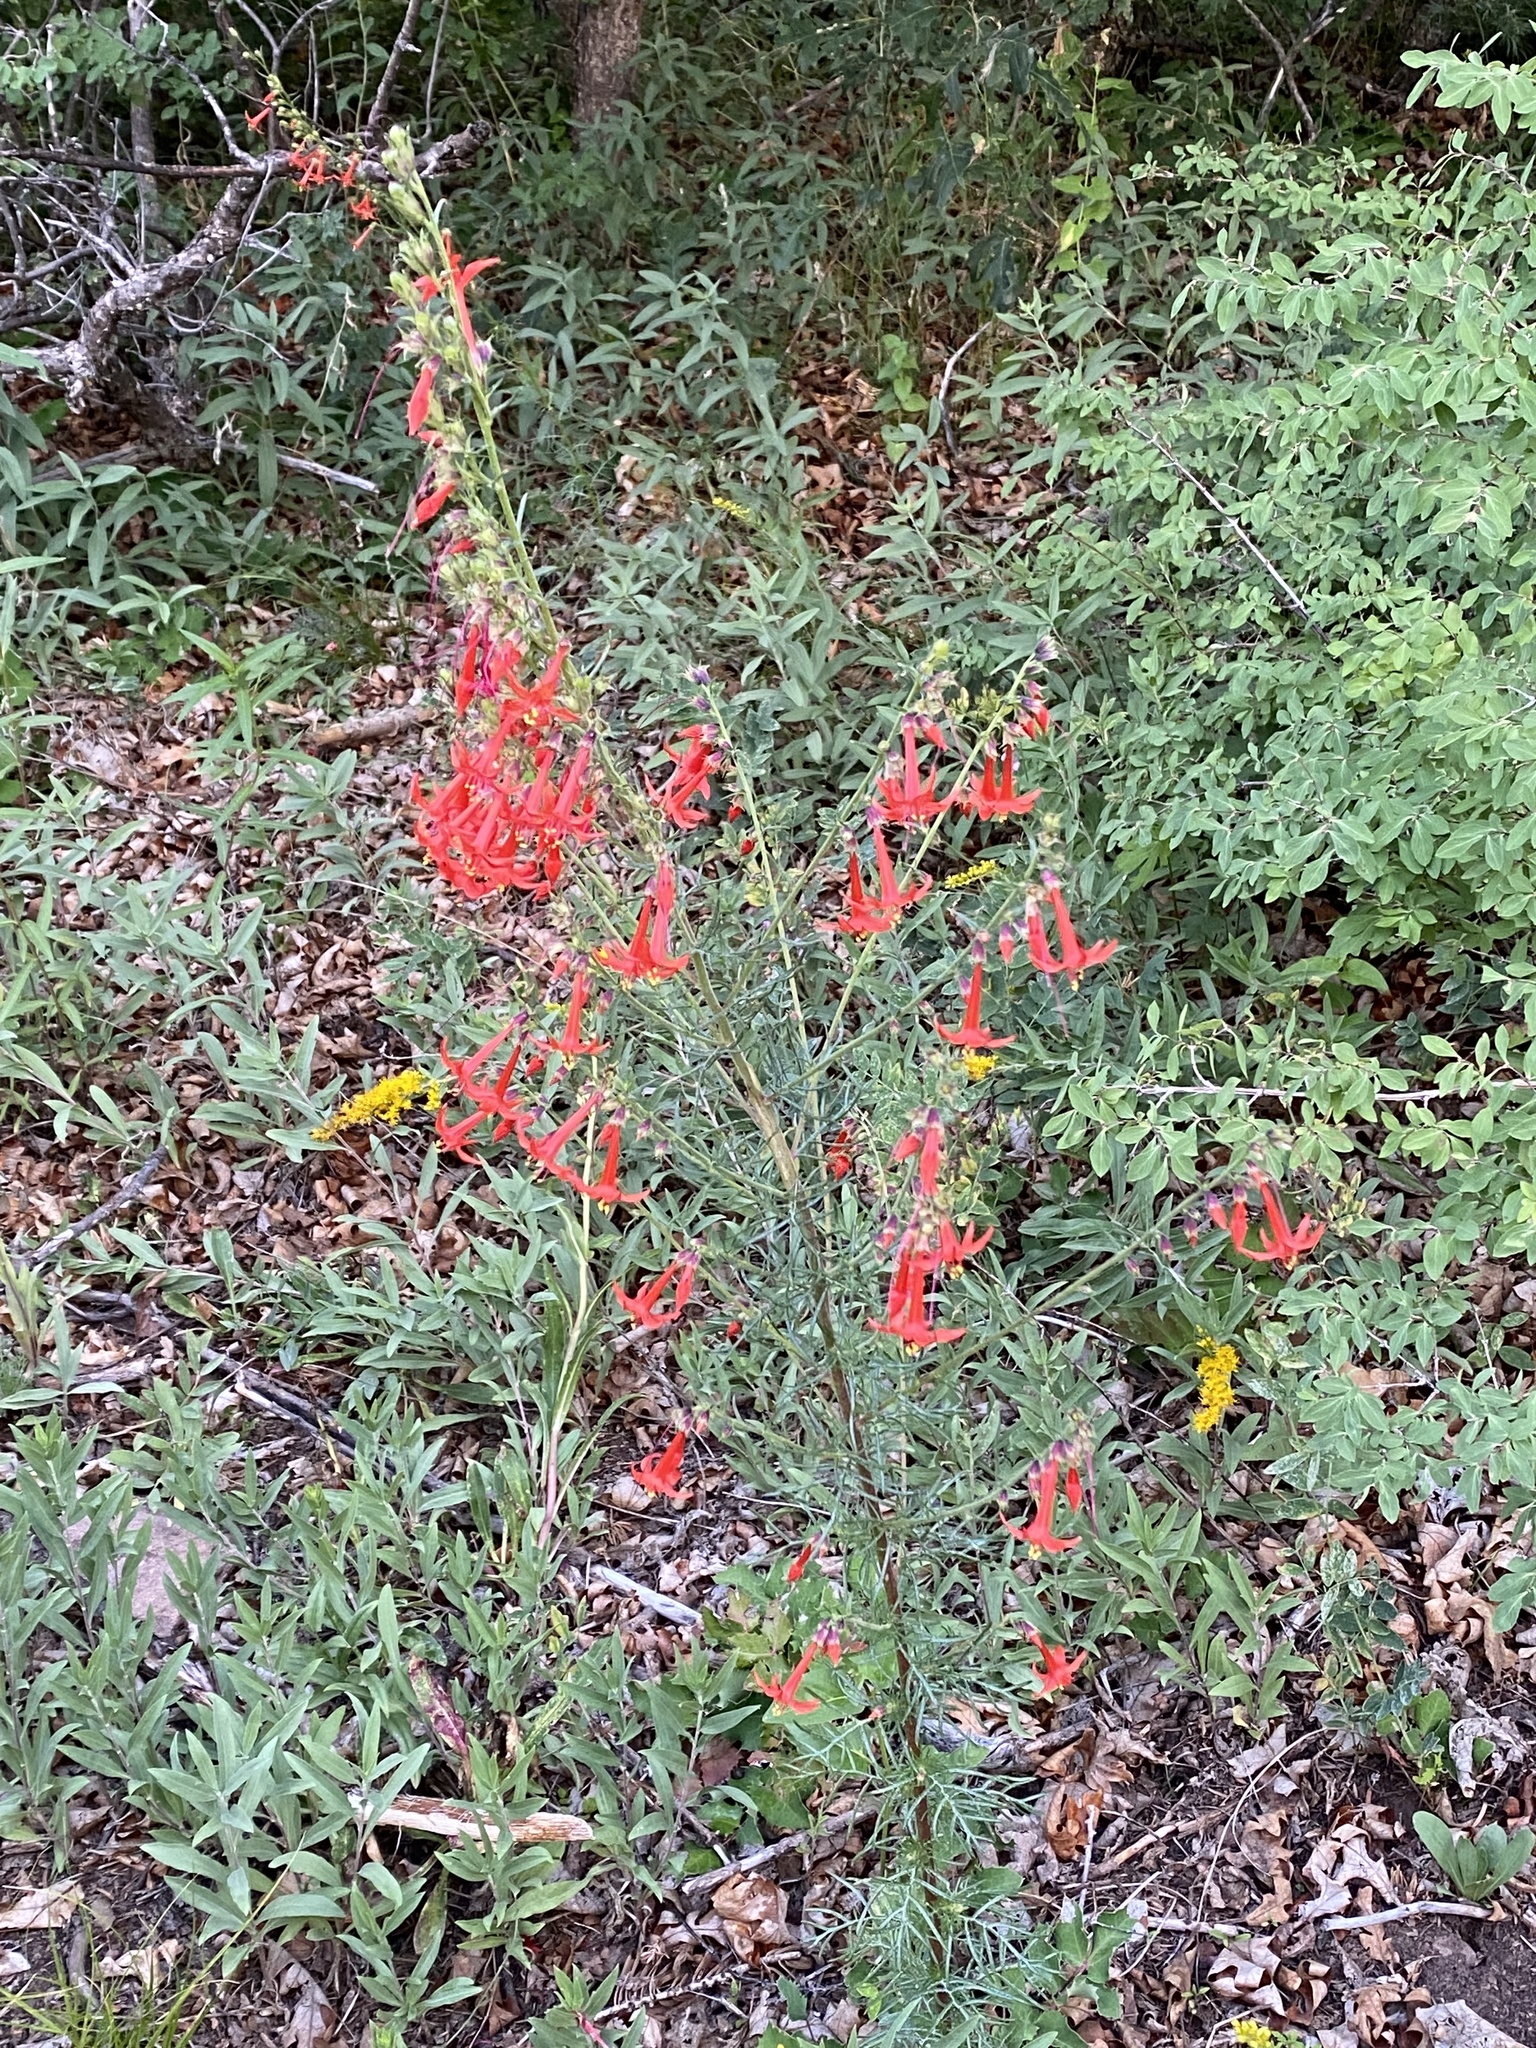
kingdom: Plantae
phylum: Tracheophyta
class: Magnoliopsida
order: Ericales
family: Polemoniaceae
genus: Ipomopsis
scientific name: Ipomopsis aggregata
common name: Scarlet gilia
